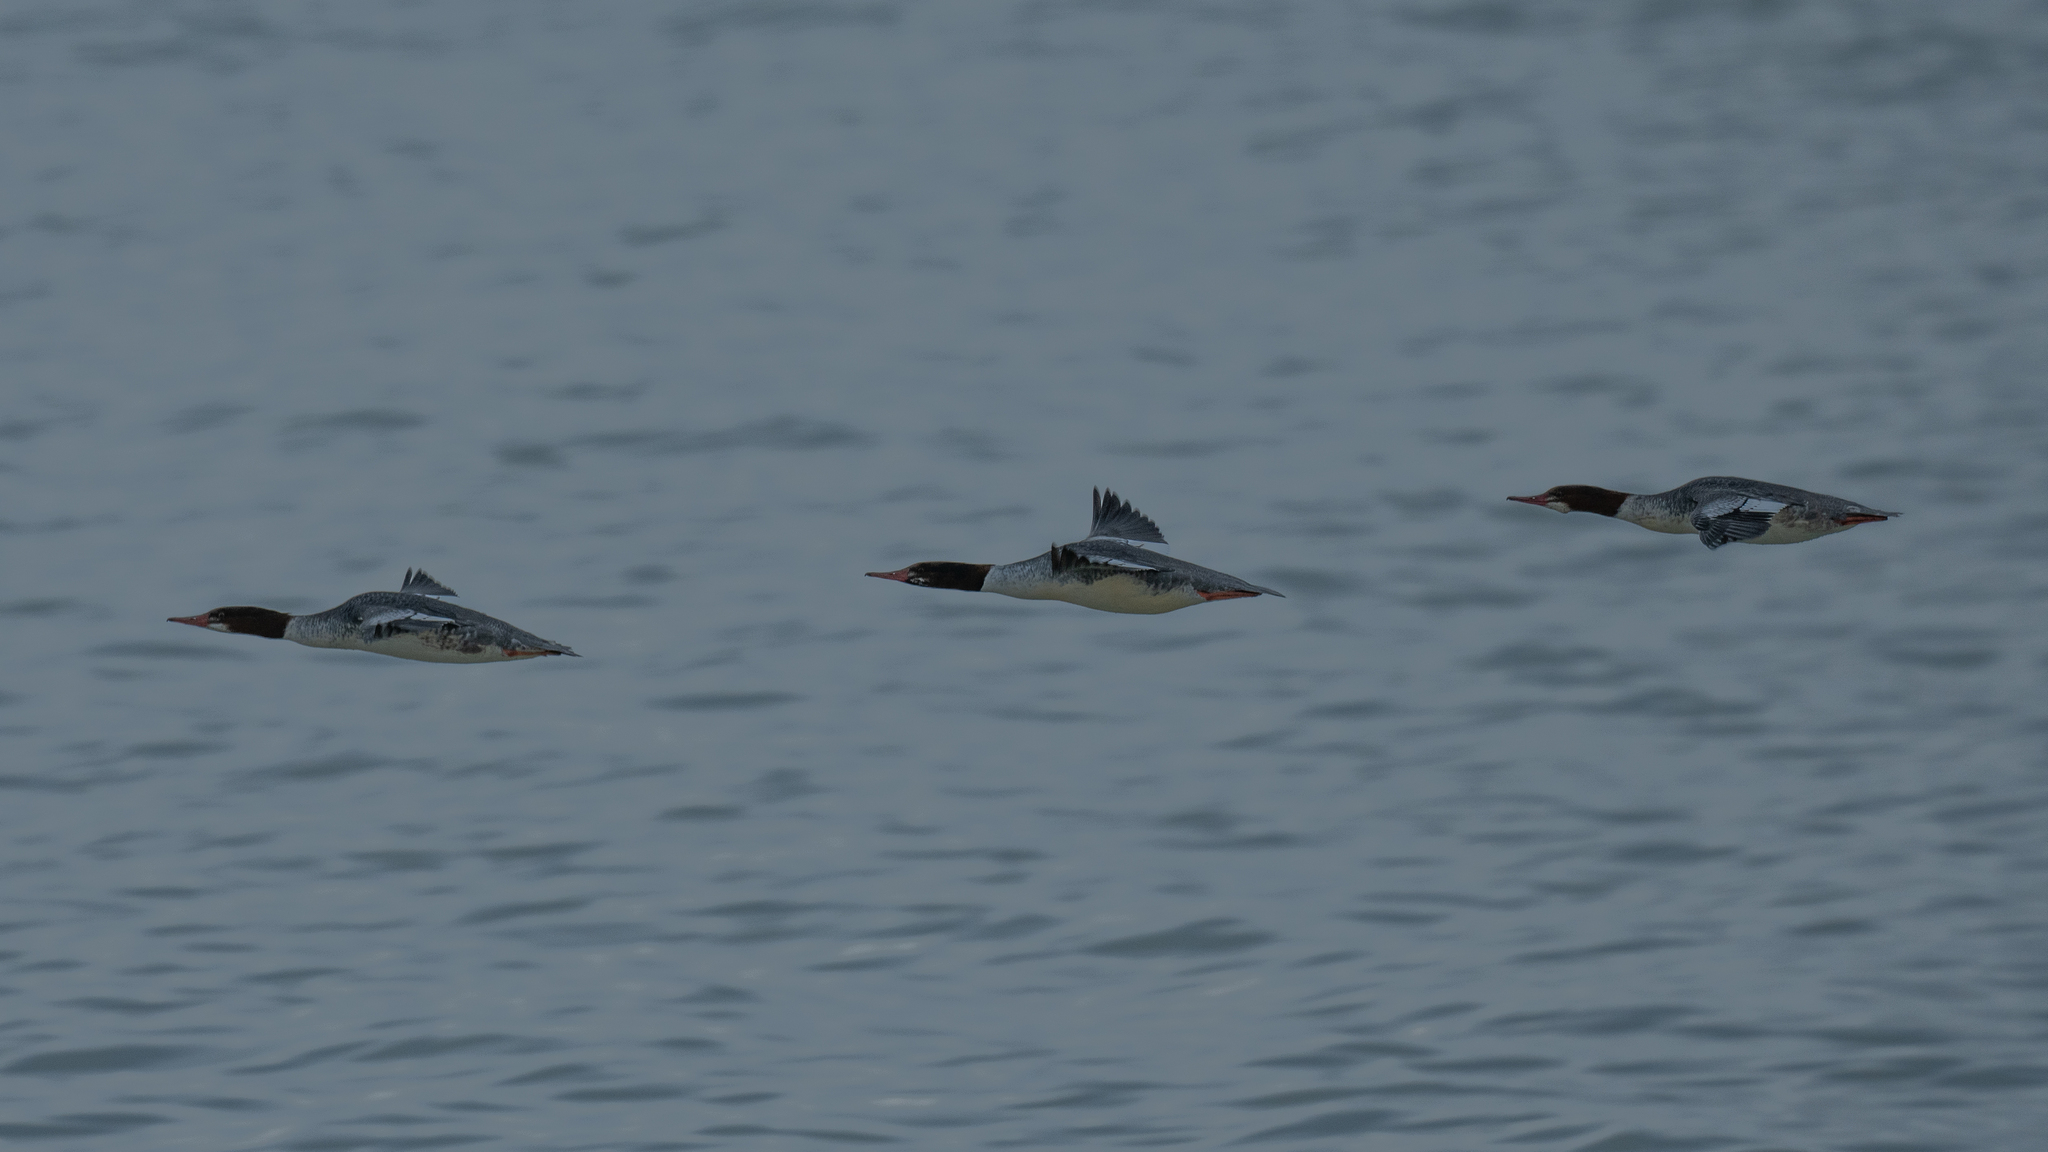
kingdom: Animalia
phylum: Chordata
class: Aves
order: Anseriformes
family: Anatidae
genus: Mergus
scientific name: Mergus merganser
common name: Common merganser
